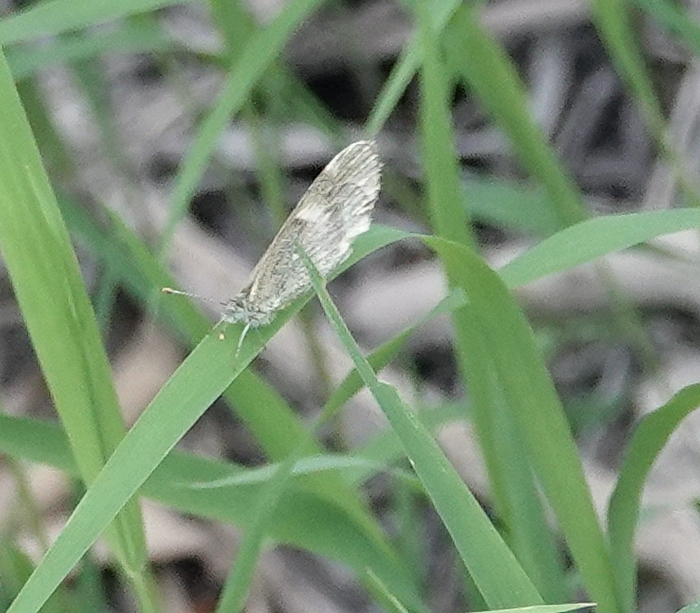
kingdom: Animalia
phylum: Arthropoda
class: Insecta
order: Lepidoptera
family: Pieridae
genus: Nathalis
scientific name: Nathalis iole
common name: Dainty sulphur
